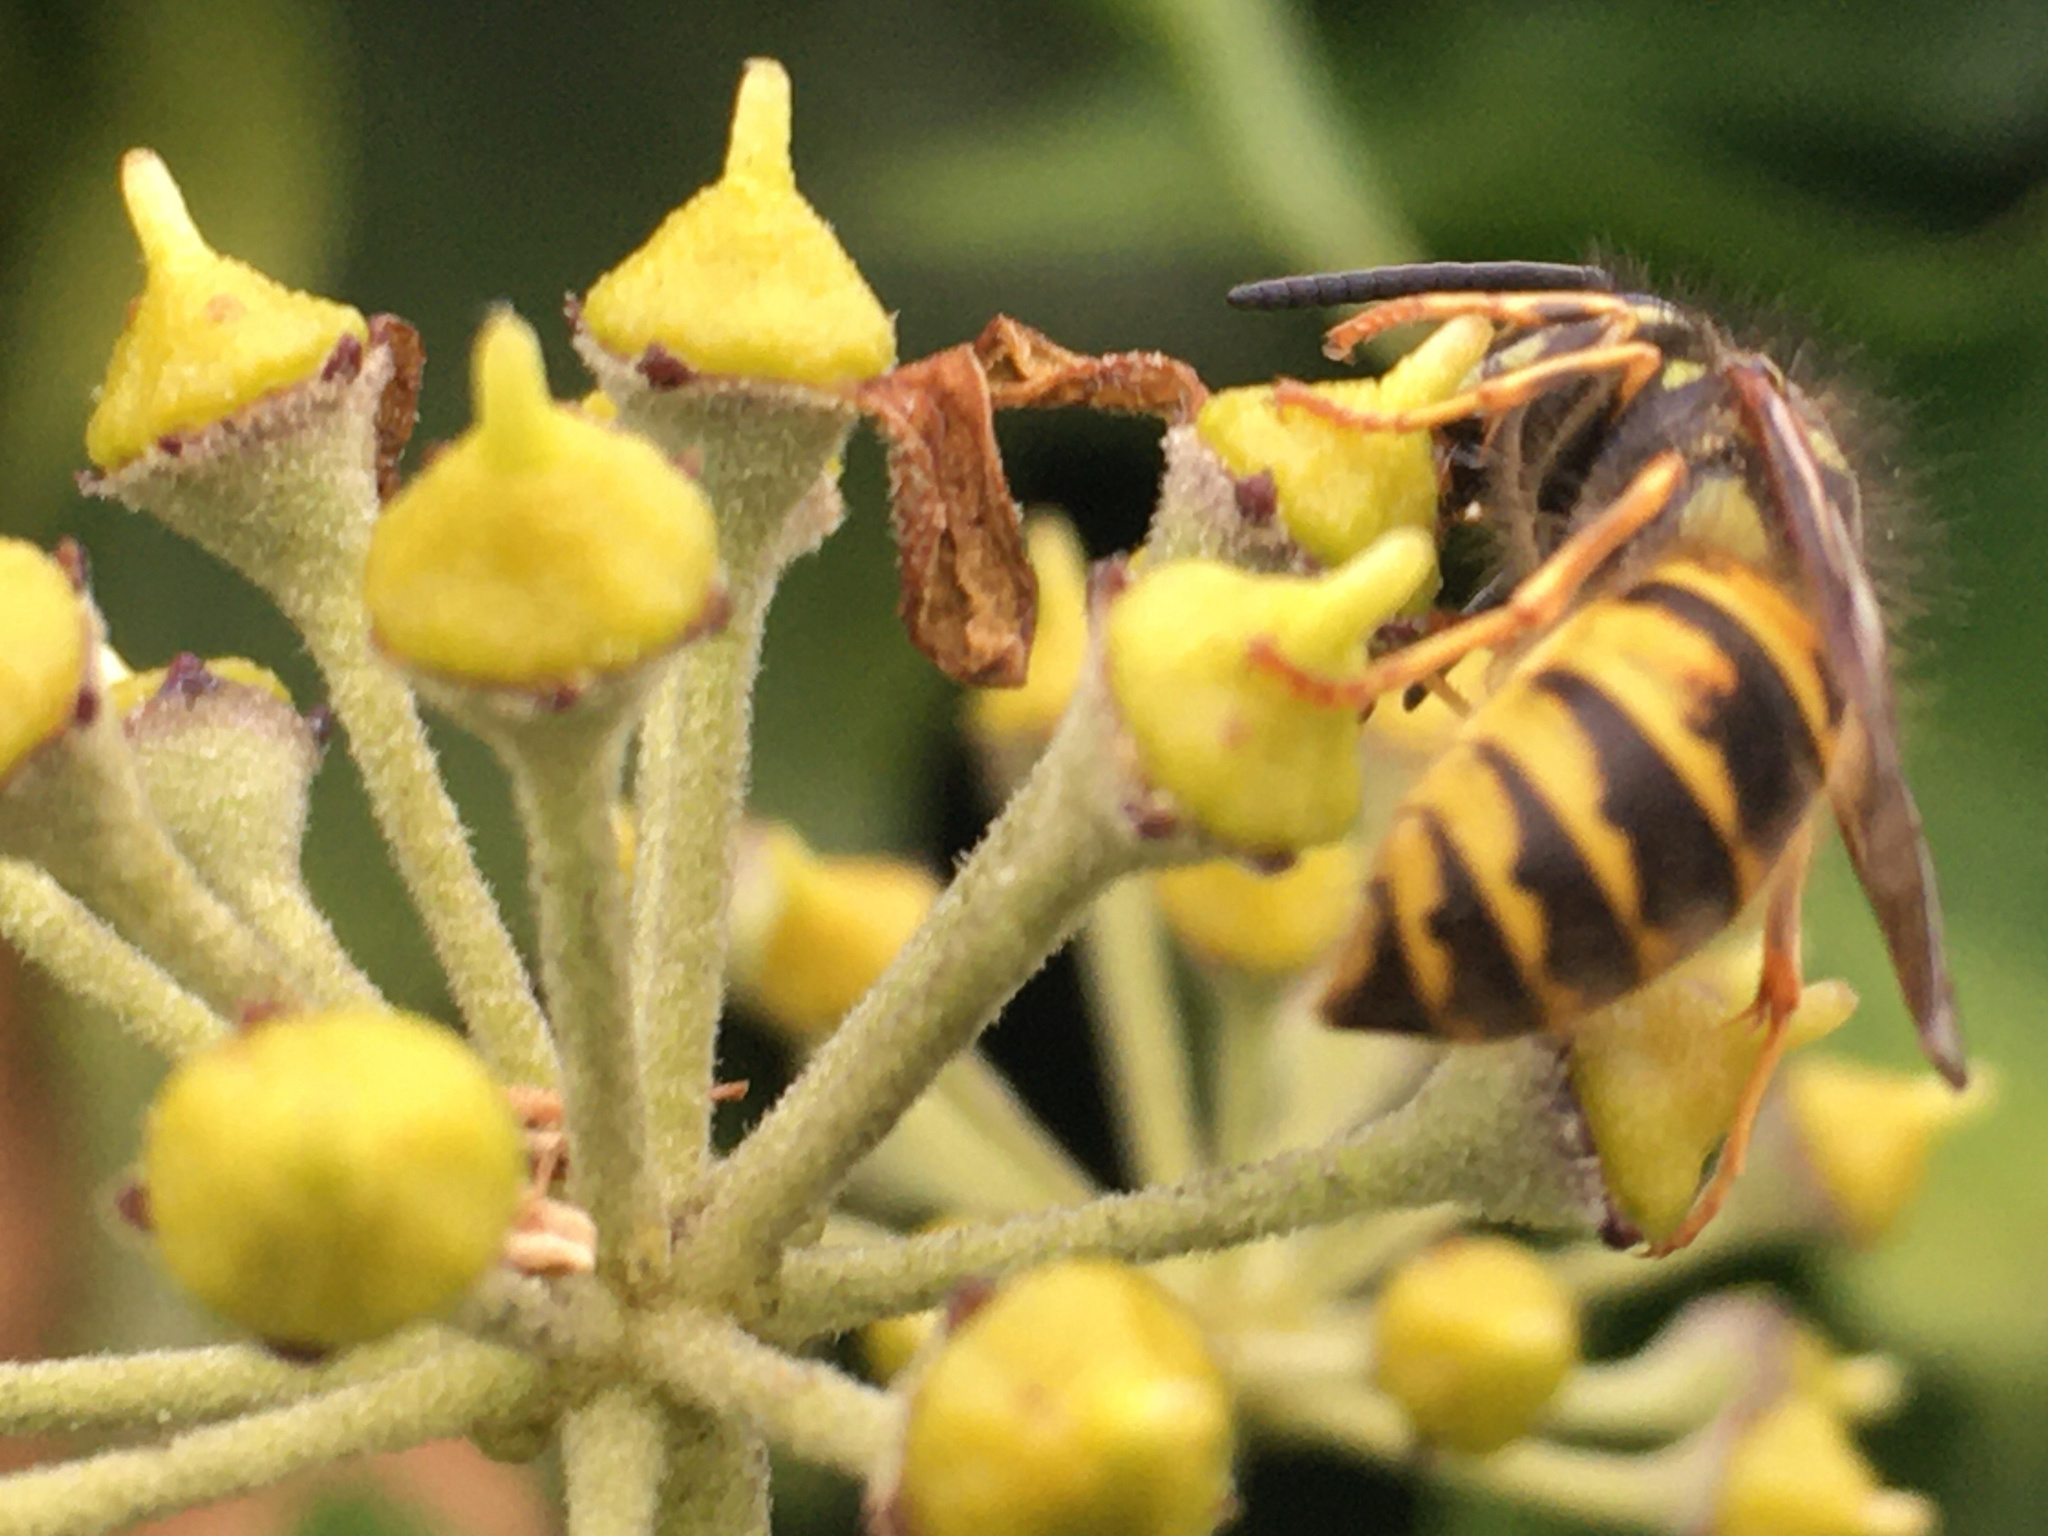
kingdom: Animalia
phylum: Arthropoda
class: Insecta
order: Hymenoptera
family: Vespidae
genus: Vespula
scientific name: Vespula vulgaris
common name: Common wasp
